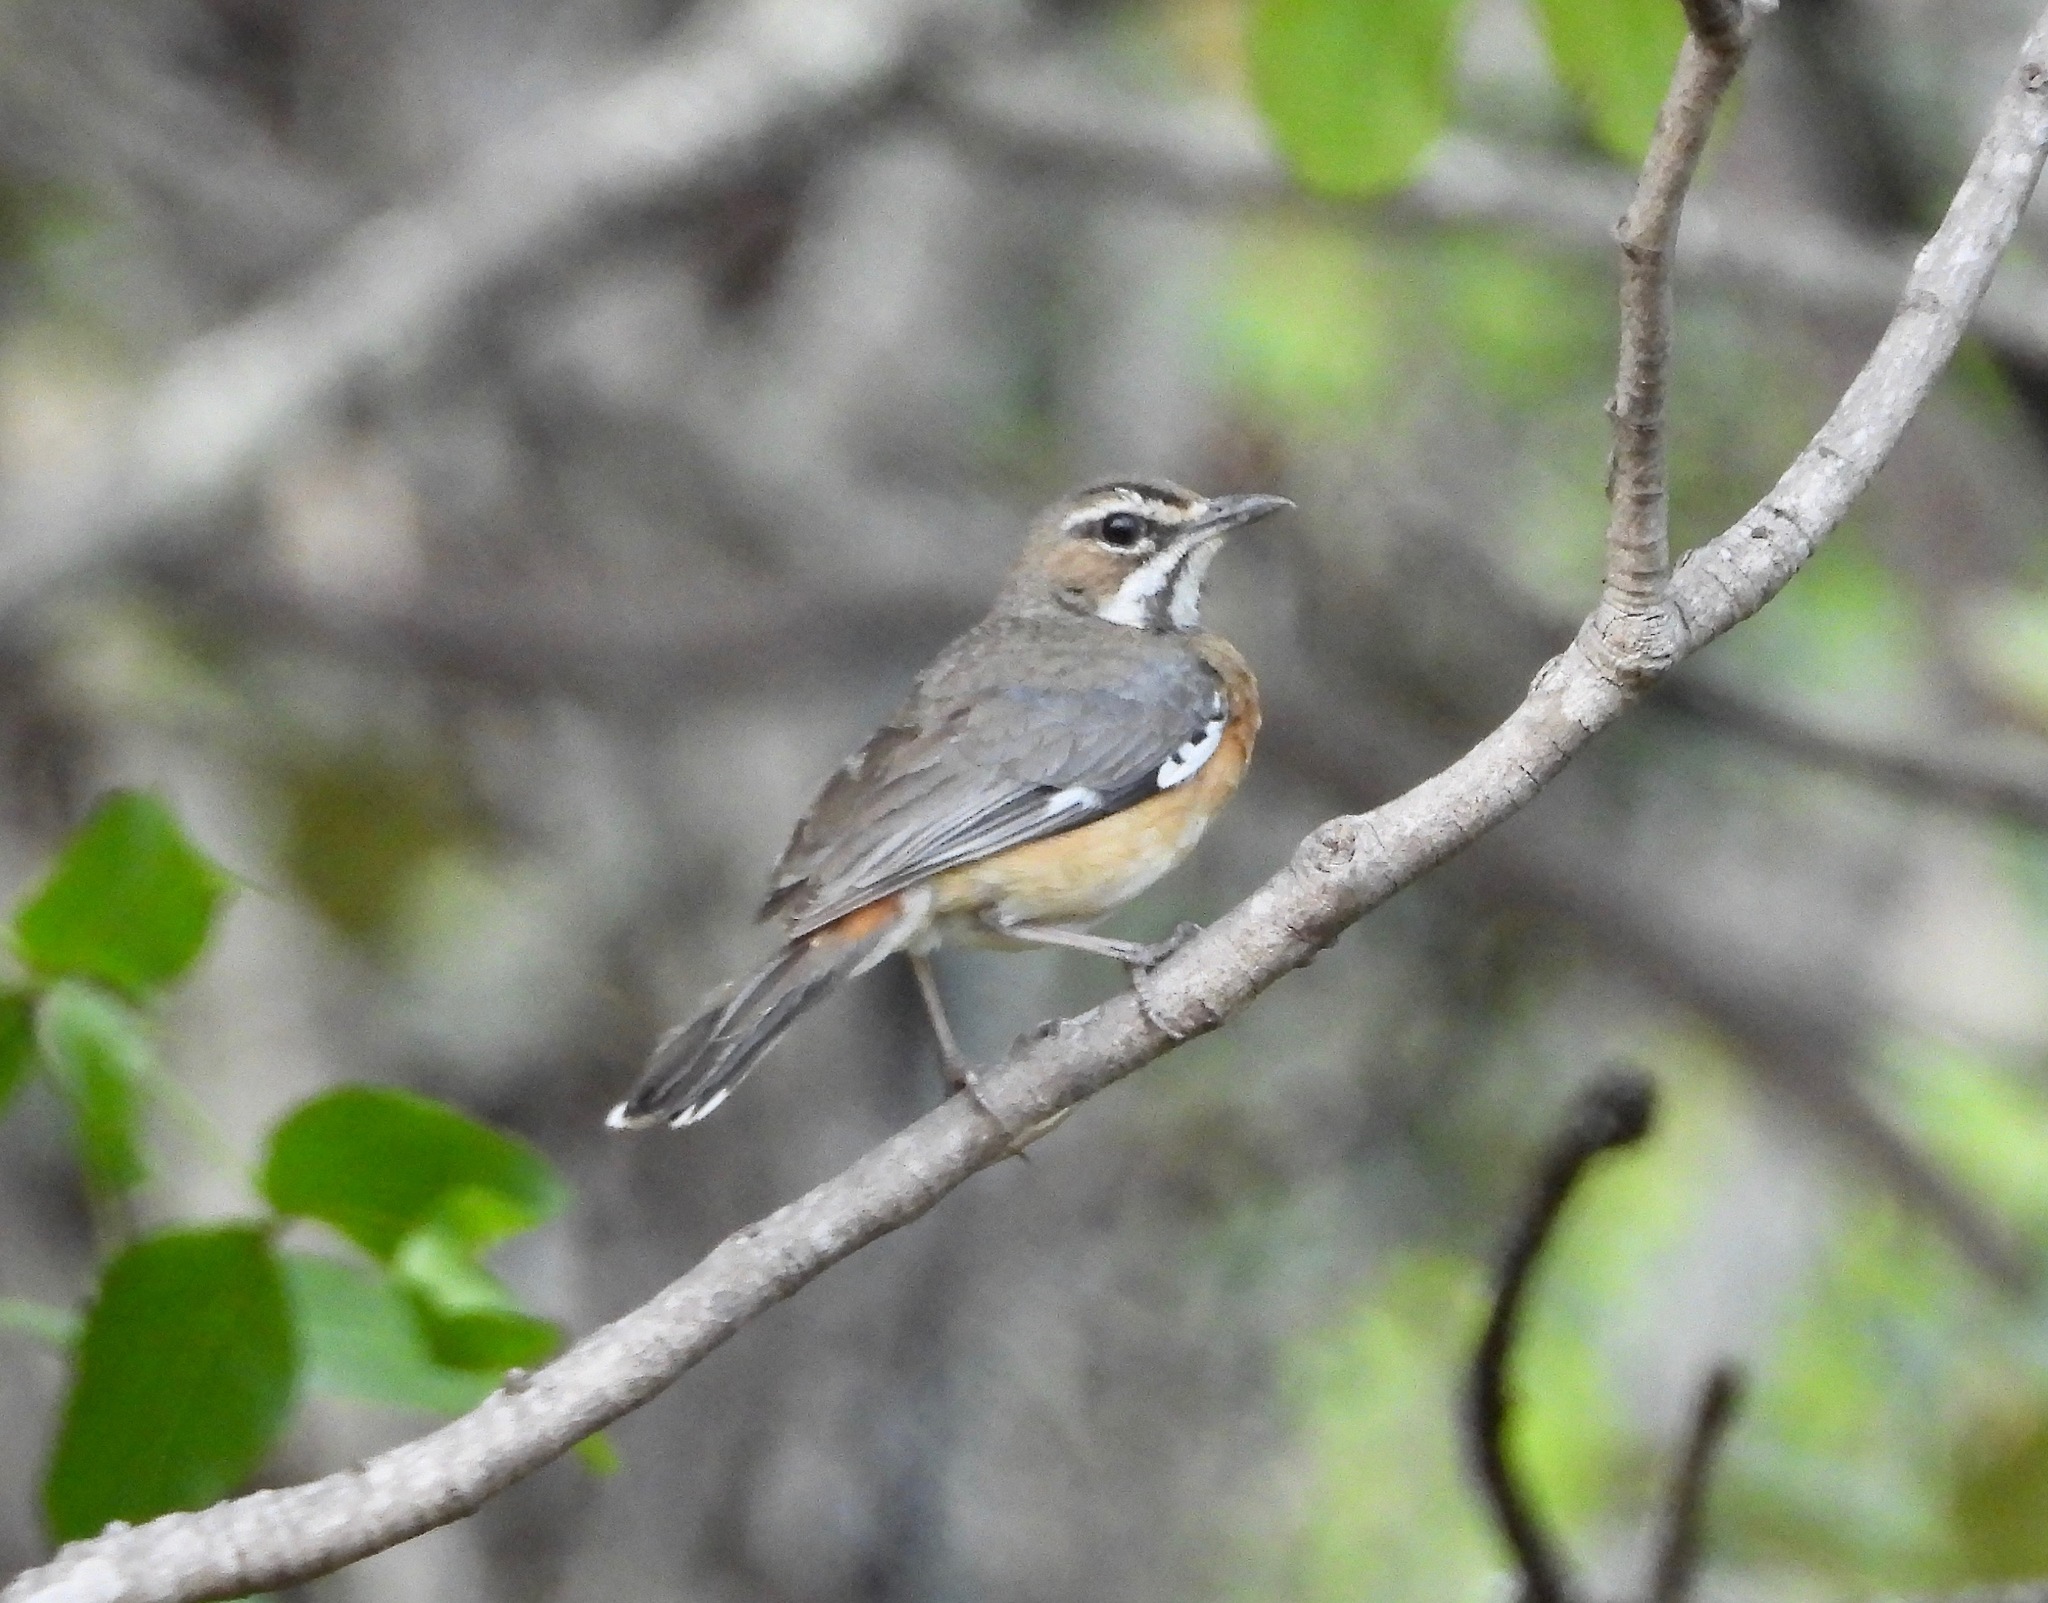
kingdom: Animalia
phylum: Chordata
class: Aves
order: Passeriformes
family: Muscicapidae
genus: Erythropygia
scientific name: Erythropygia barbata
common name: Miombo scrub robin
